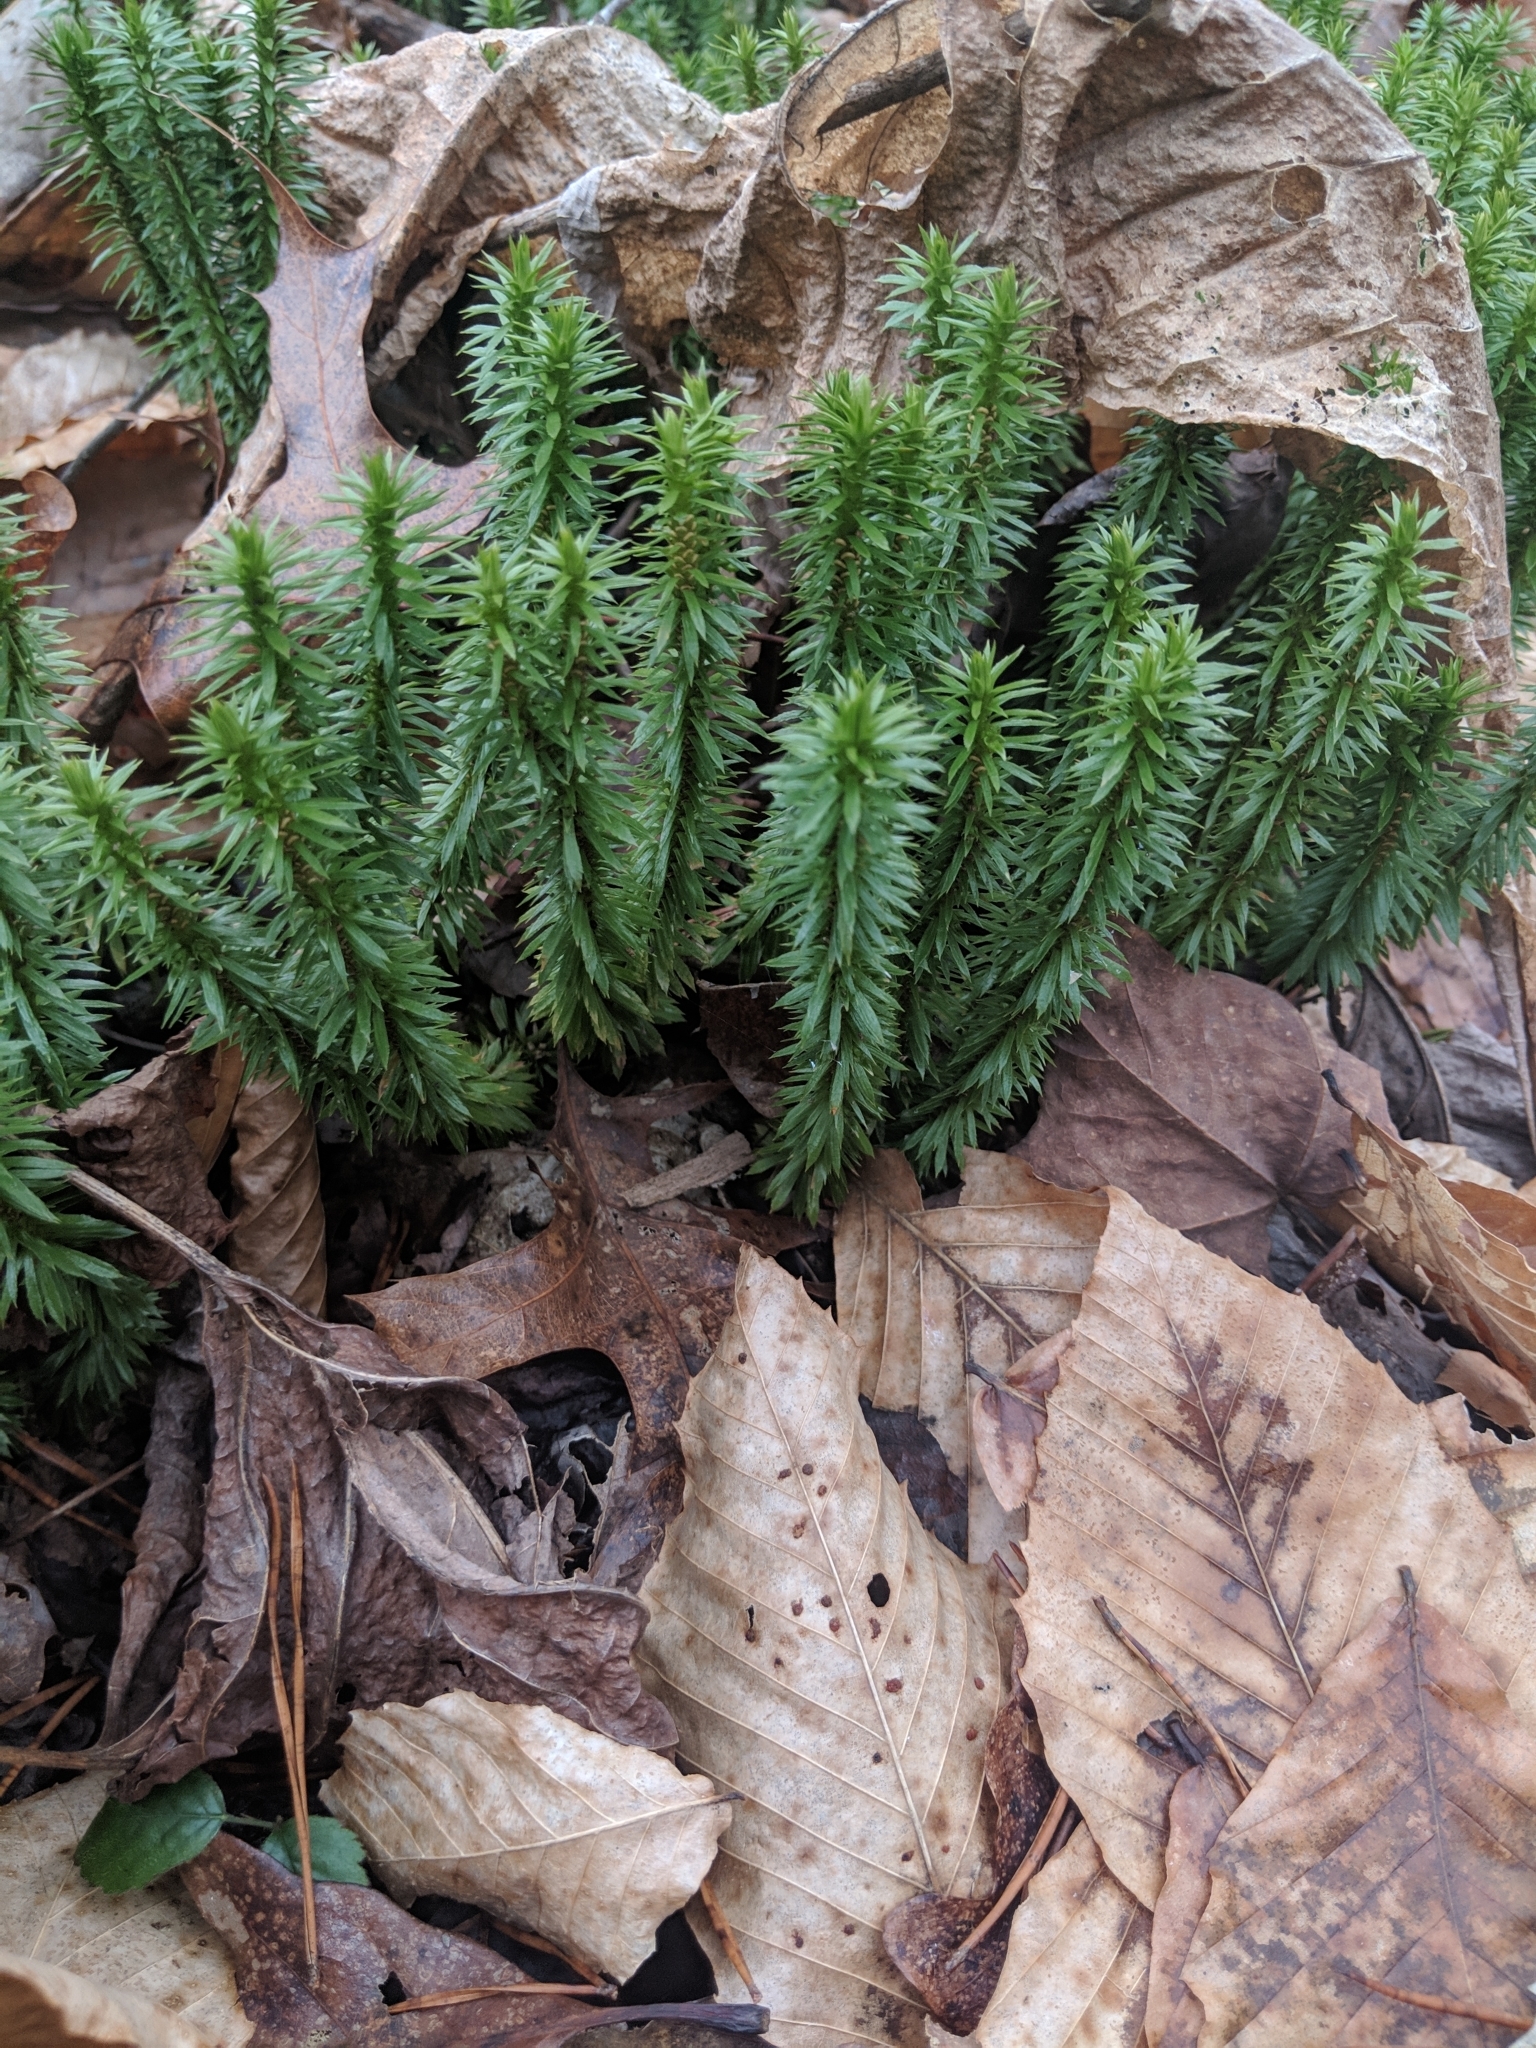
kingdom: Plantae
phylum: Tracheophyta
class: Lycopodiopsida
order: Lycopodiales
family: Lycopodiaceae
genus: Huperzia
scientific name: Huperzia lucidula
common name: Shining clubmoss
